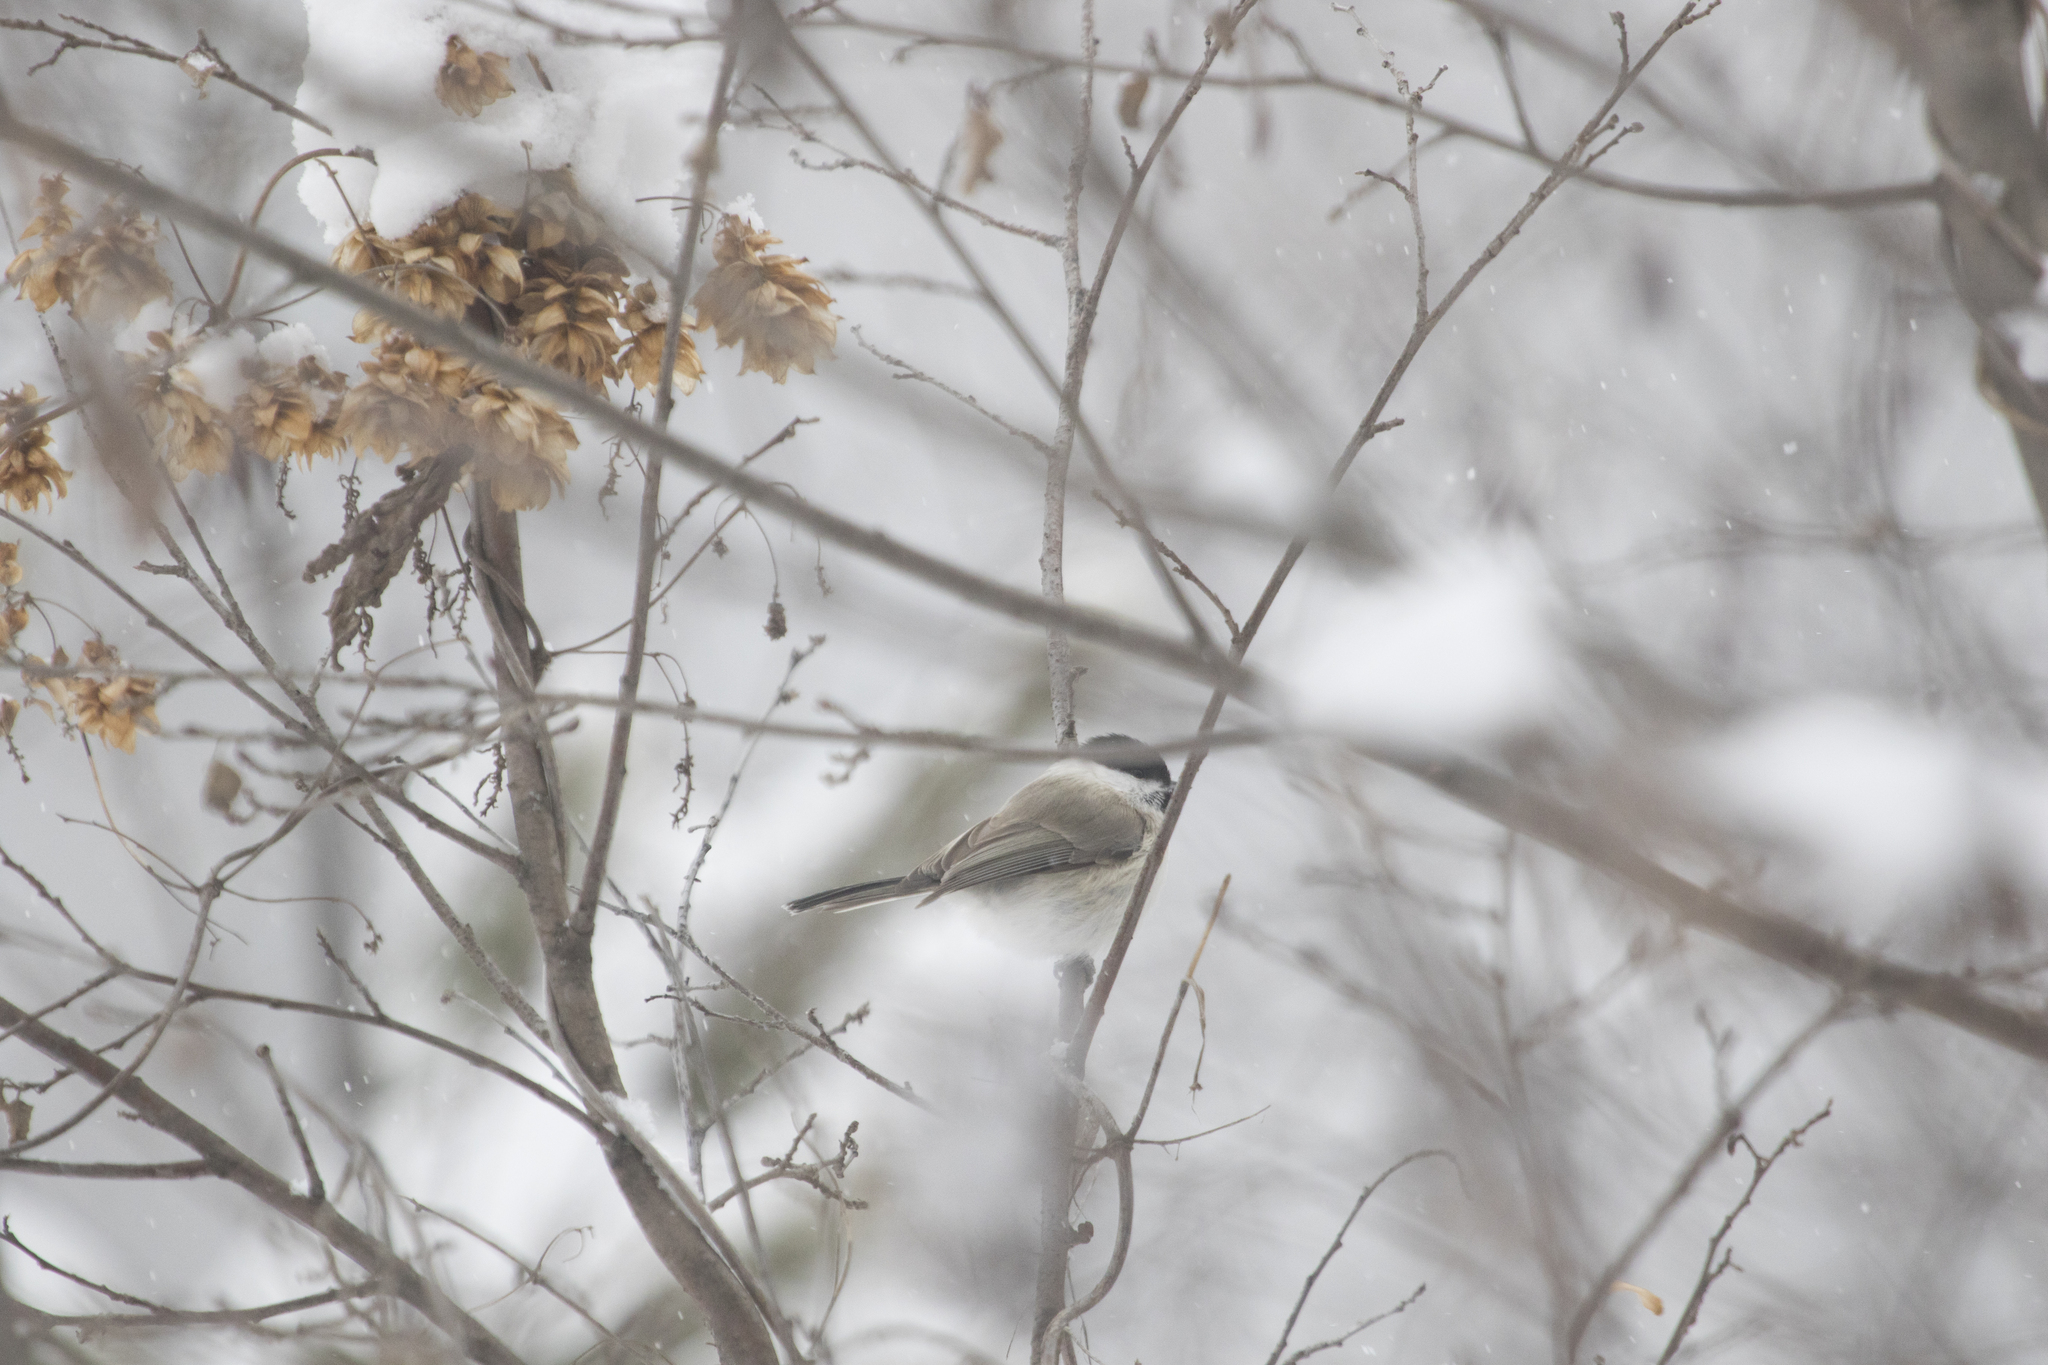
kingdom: Animalia
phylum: Chordata
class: Aves
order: Passeriformes
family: Paridae
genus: Poecile
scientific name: Poecile palustris
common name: Marsh tit
